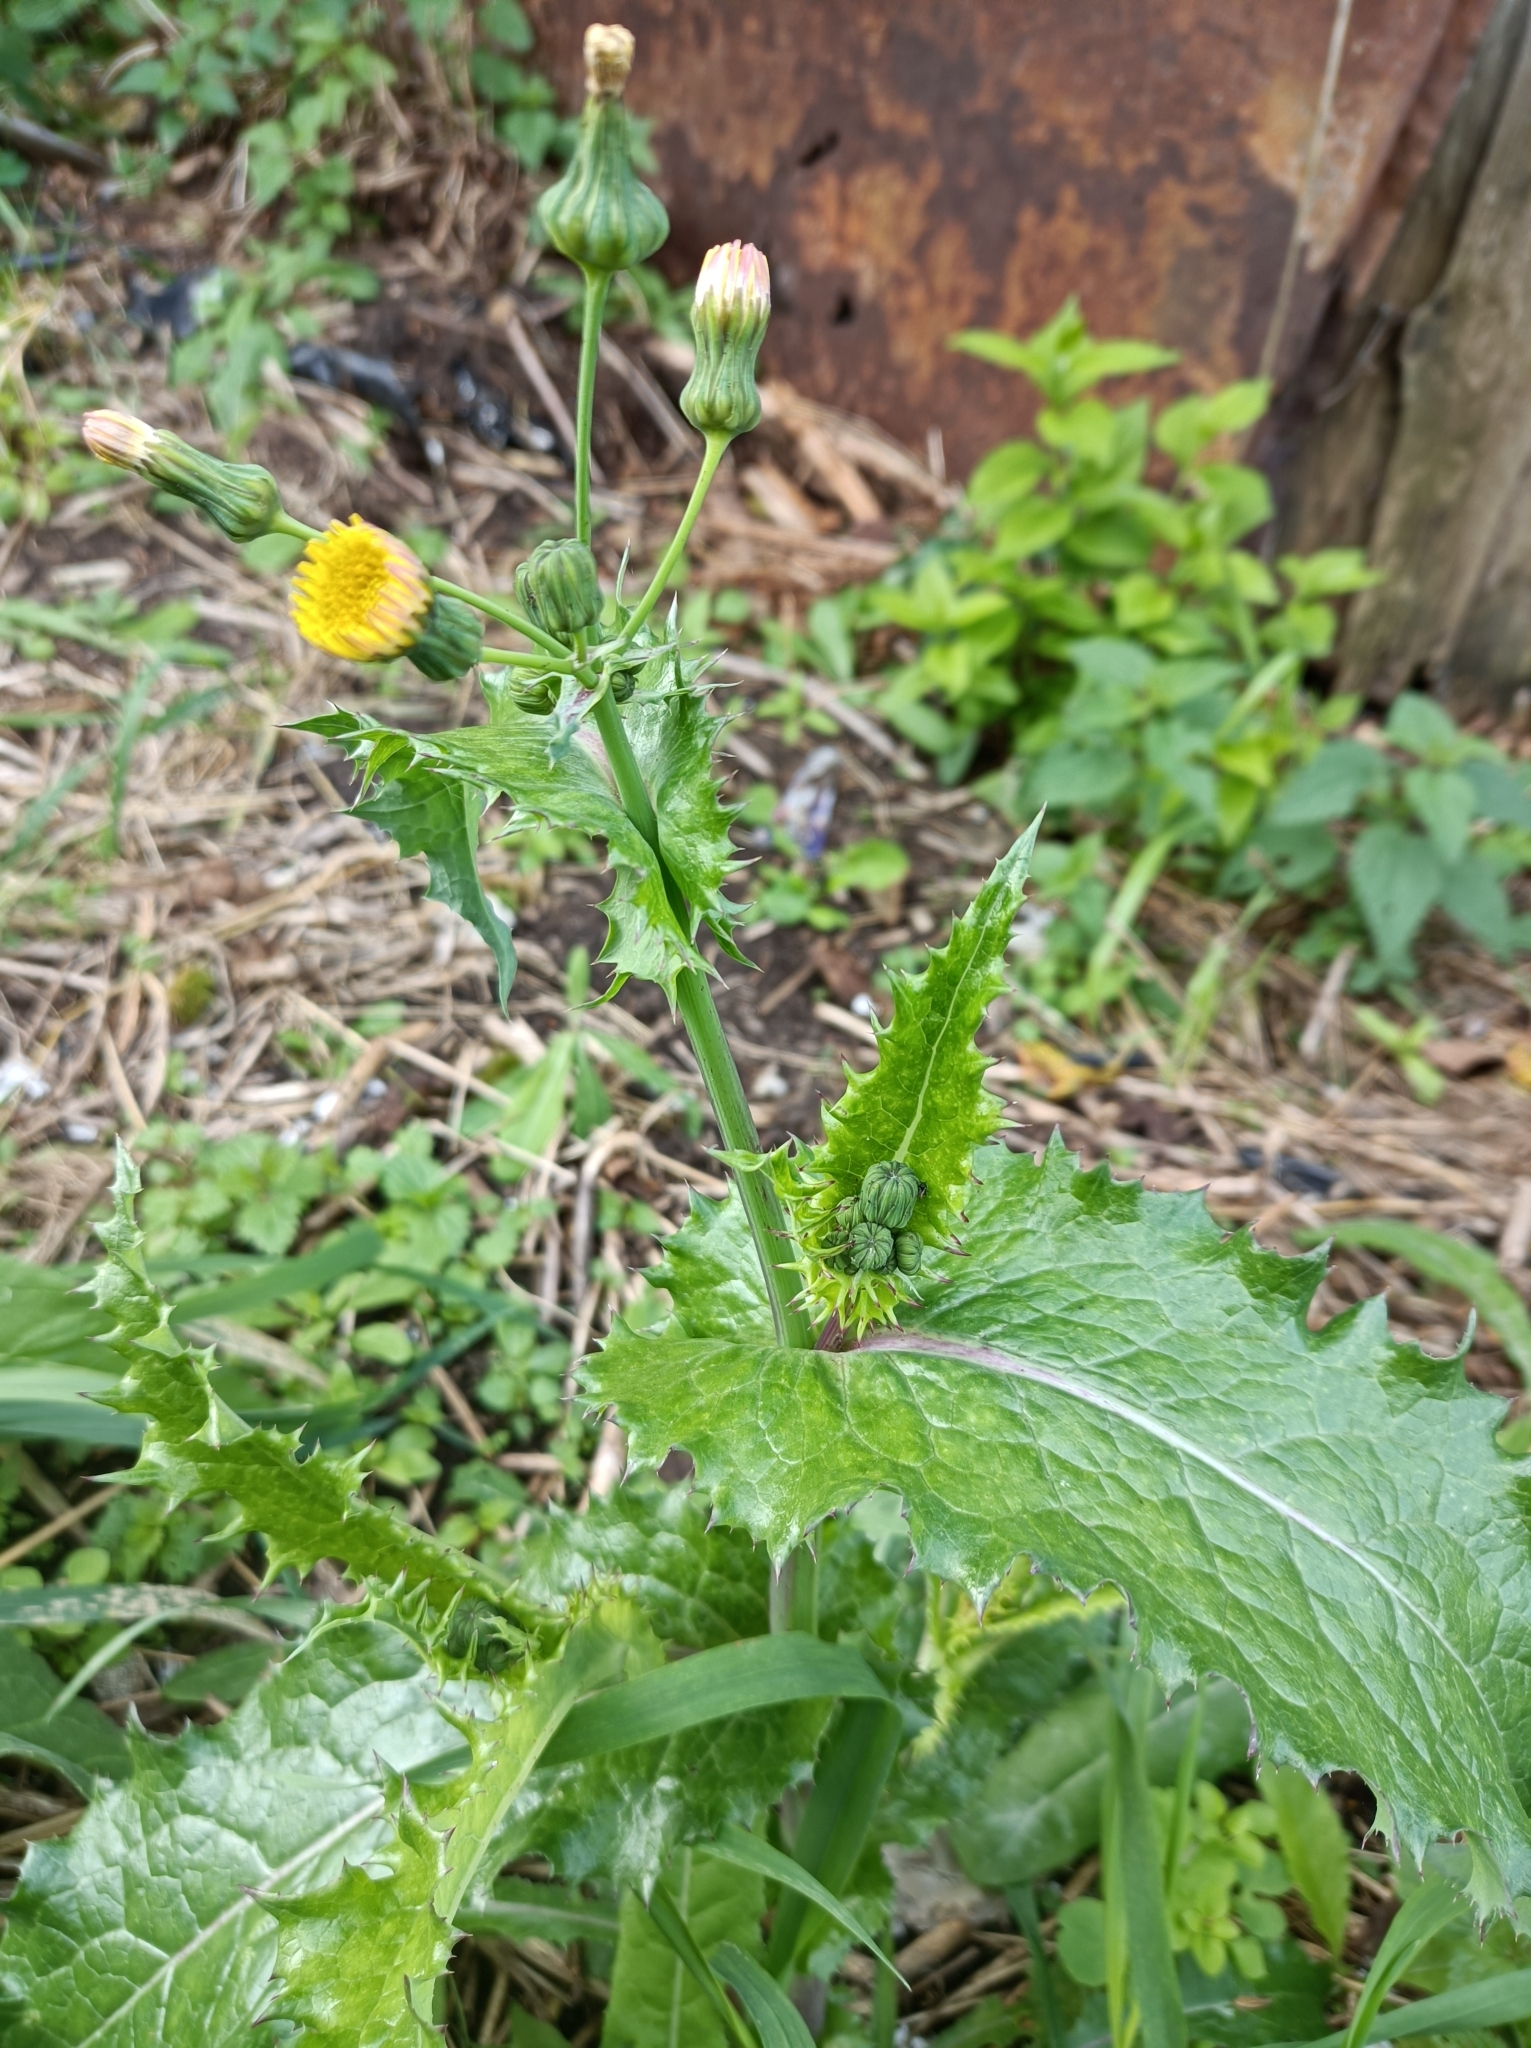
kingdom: Plantae
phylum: Tracheophyta
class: Magnoliopsida
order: Asterales
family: Asteraceae
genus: Sonchus
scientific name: Sonchus asper
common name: Prickly sow-thistle
